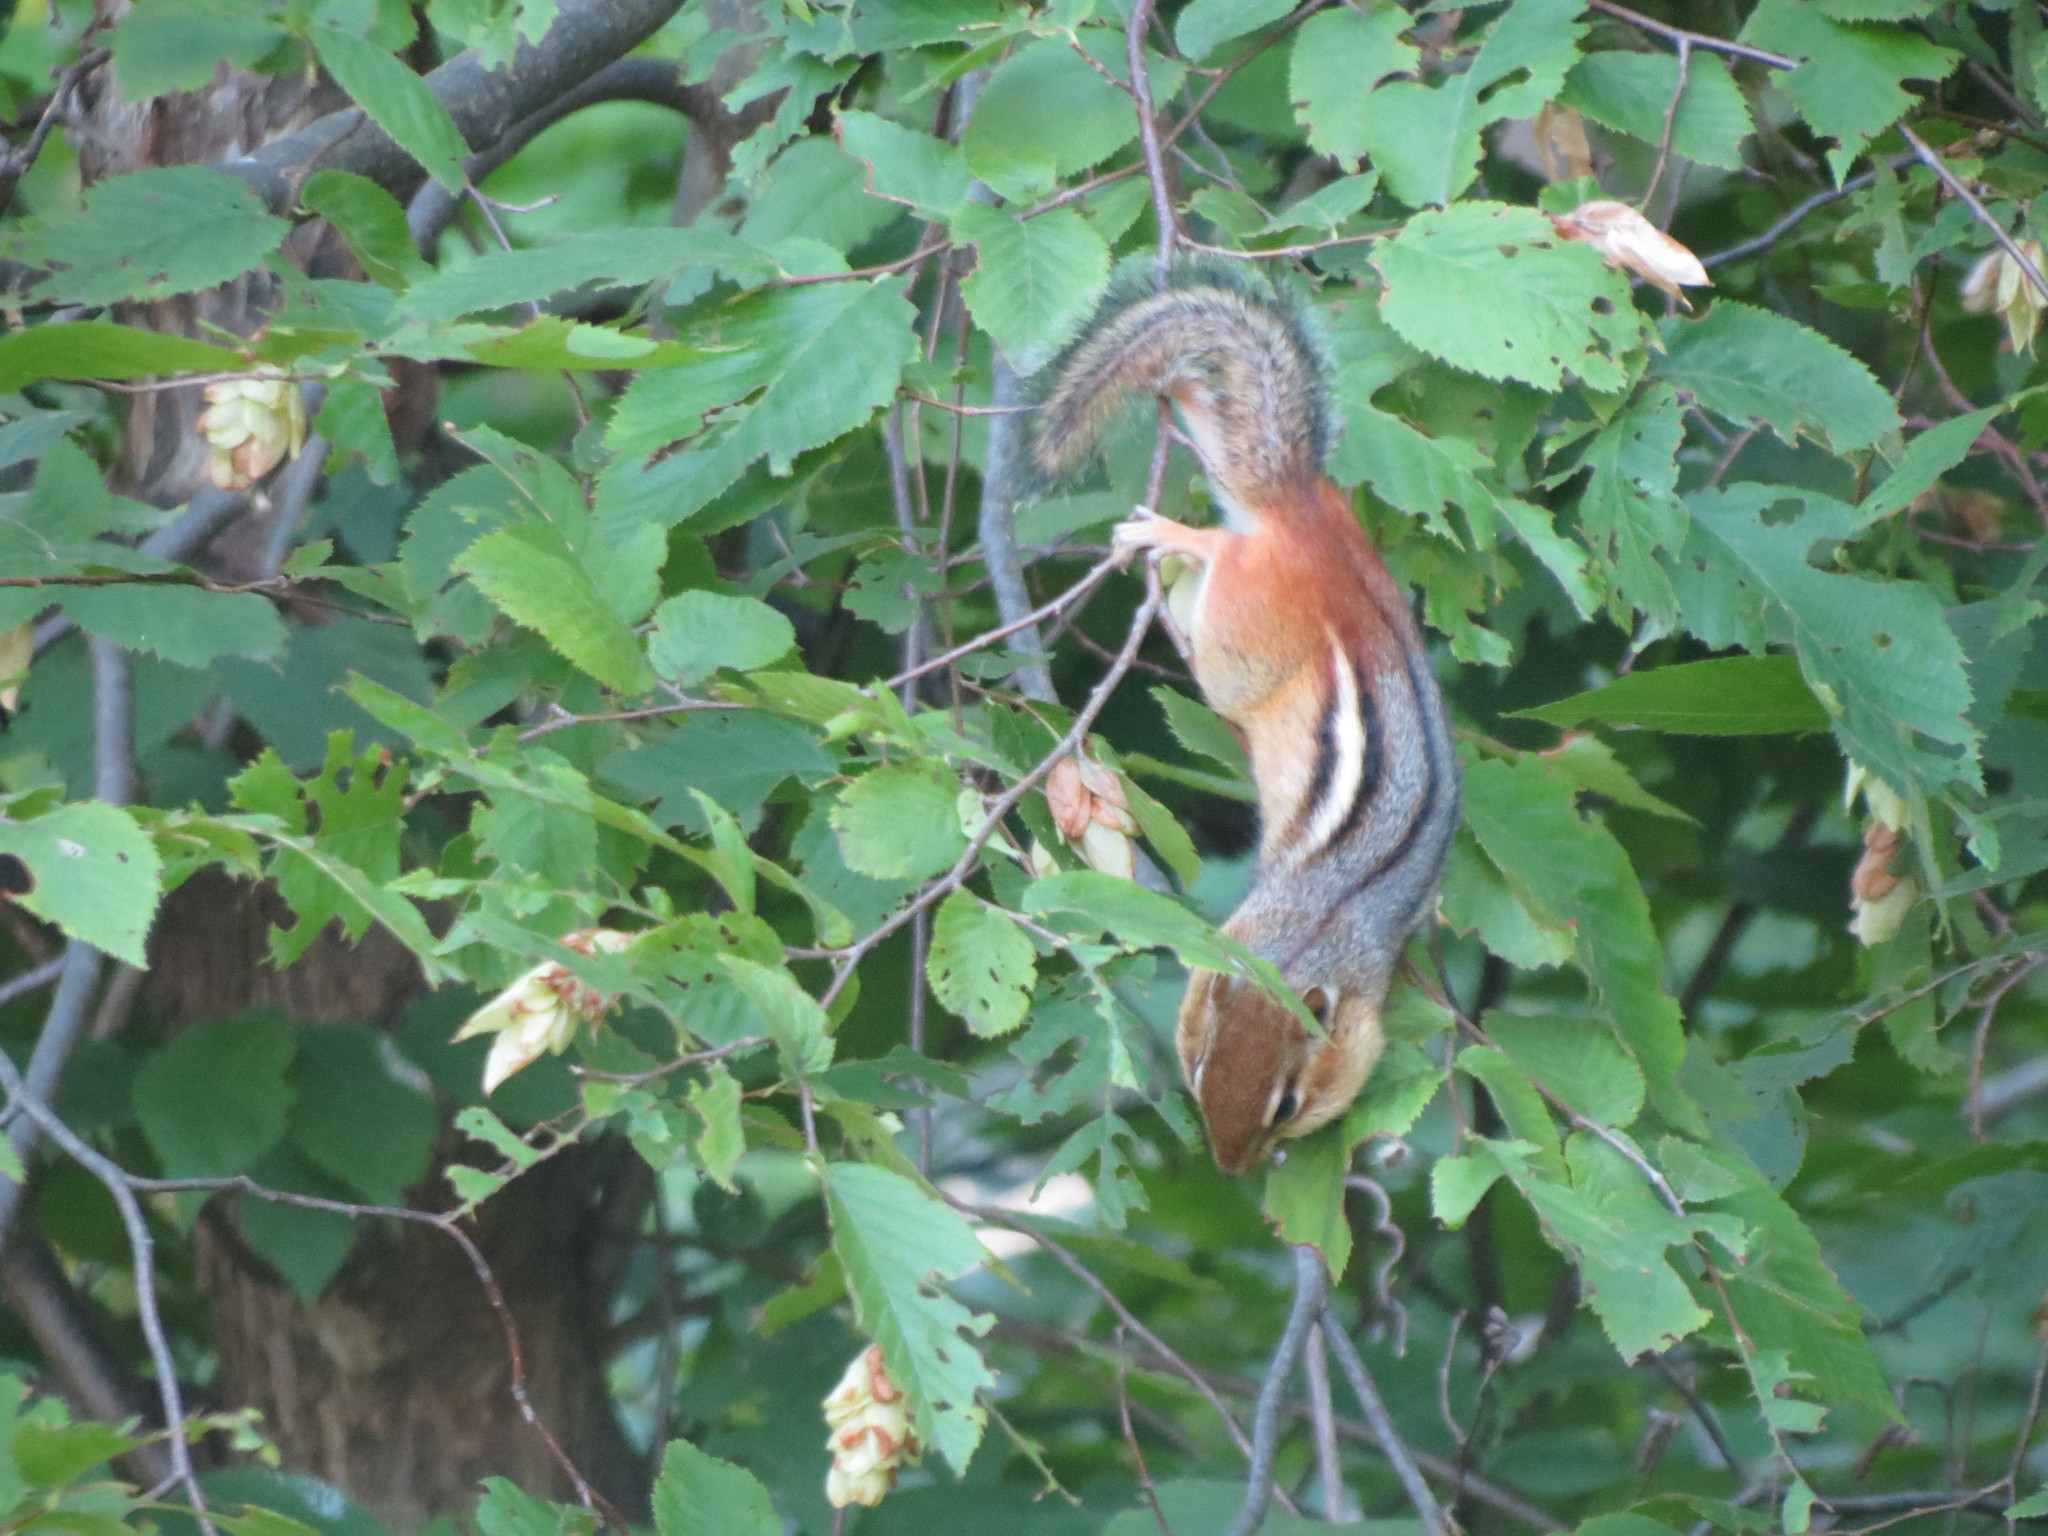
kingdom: Animalia
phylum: Chordata
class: Mammalia
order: Rodentia
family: Sciuridae
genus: Tamias
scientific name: Tamias striatus
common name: Eastern chipmunk
